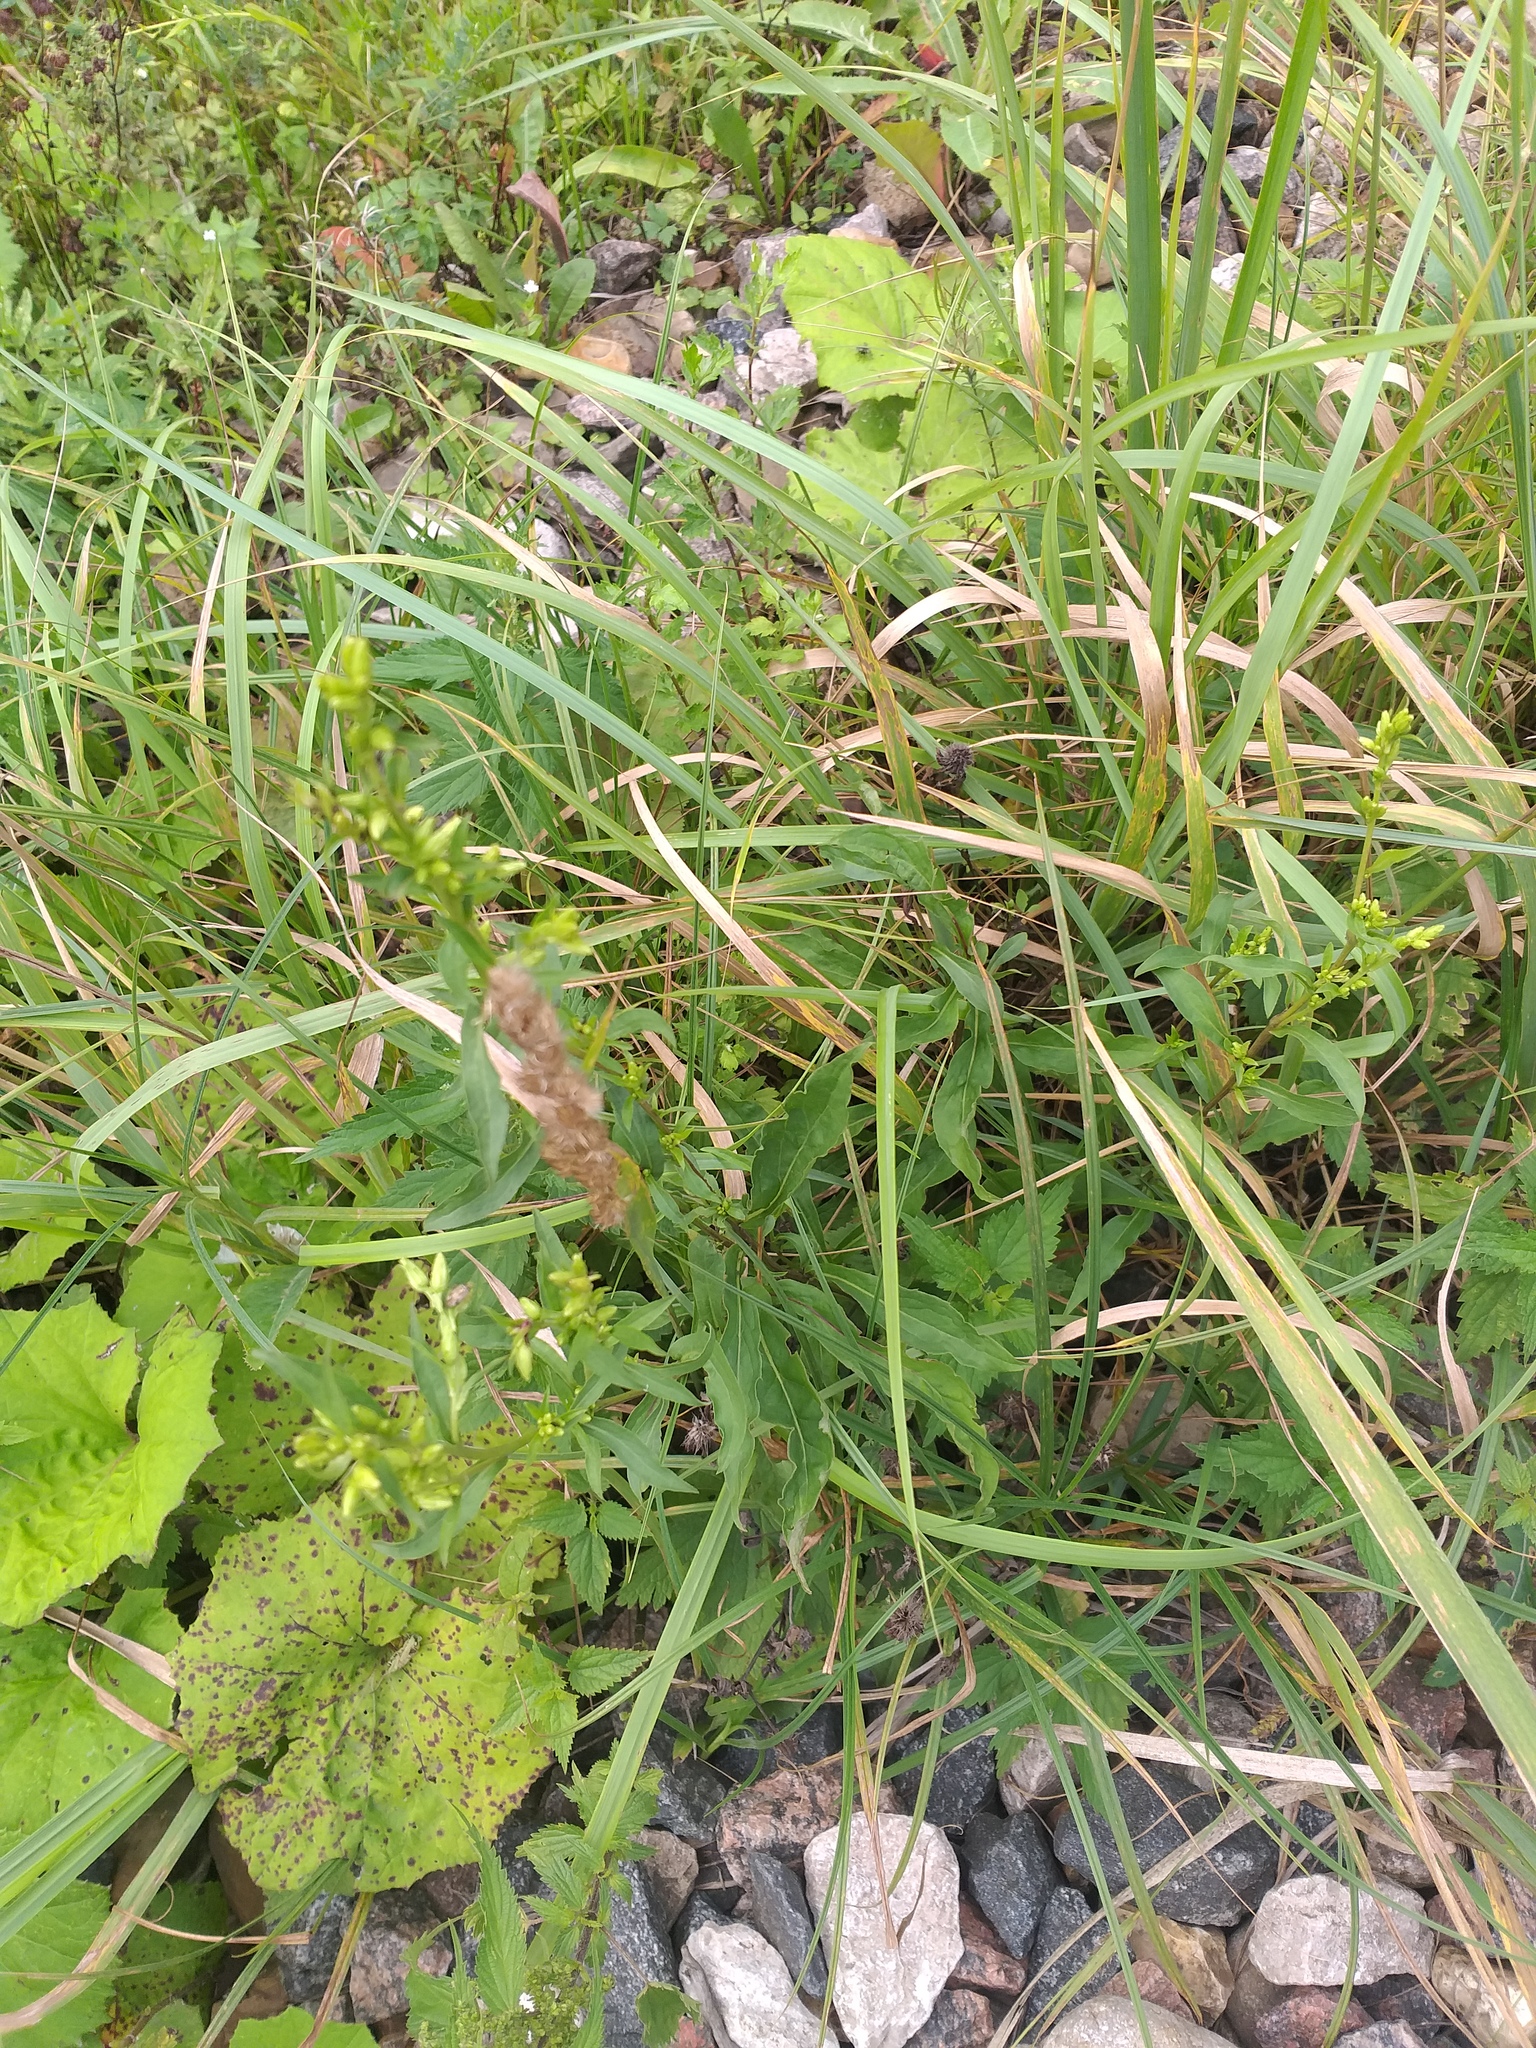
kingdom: Plantae
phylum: Tracheophyta
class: Magnoliopsida
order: Asterales
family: Asteraceae
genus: Solidago
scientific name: Solidago virgaurea
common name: Goldenrod
